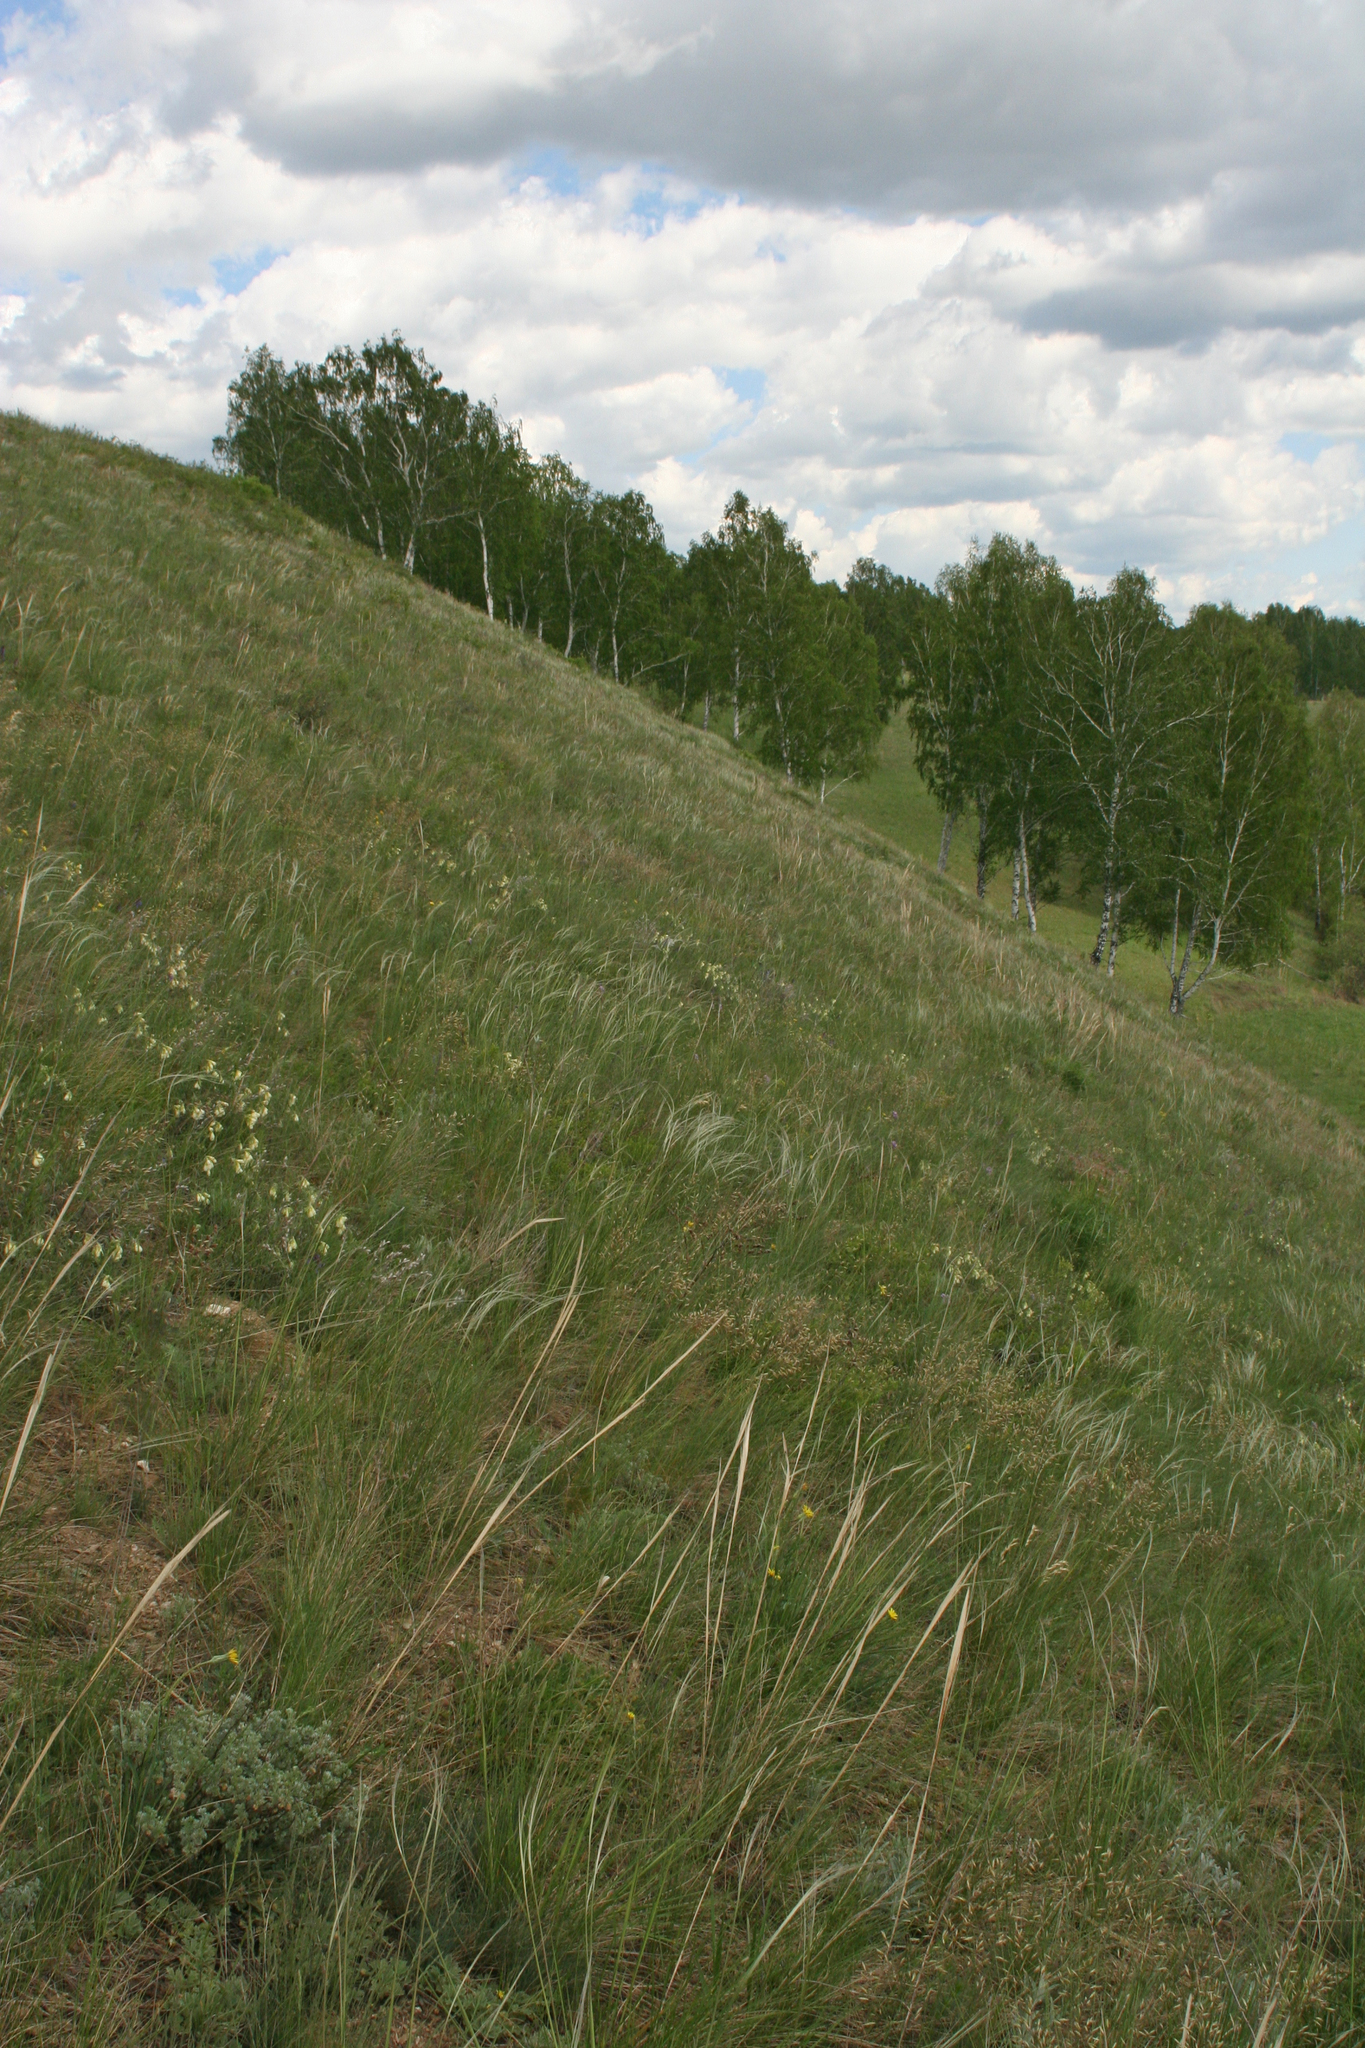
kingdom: Plantae
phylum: Tracheophyta
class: Liliopsida
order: Poales
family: Poaceae
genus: Stipa
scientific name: Stipa pennata
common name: European feather grass
